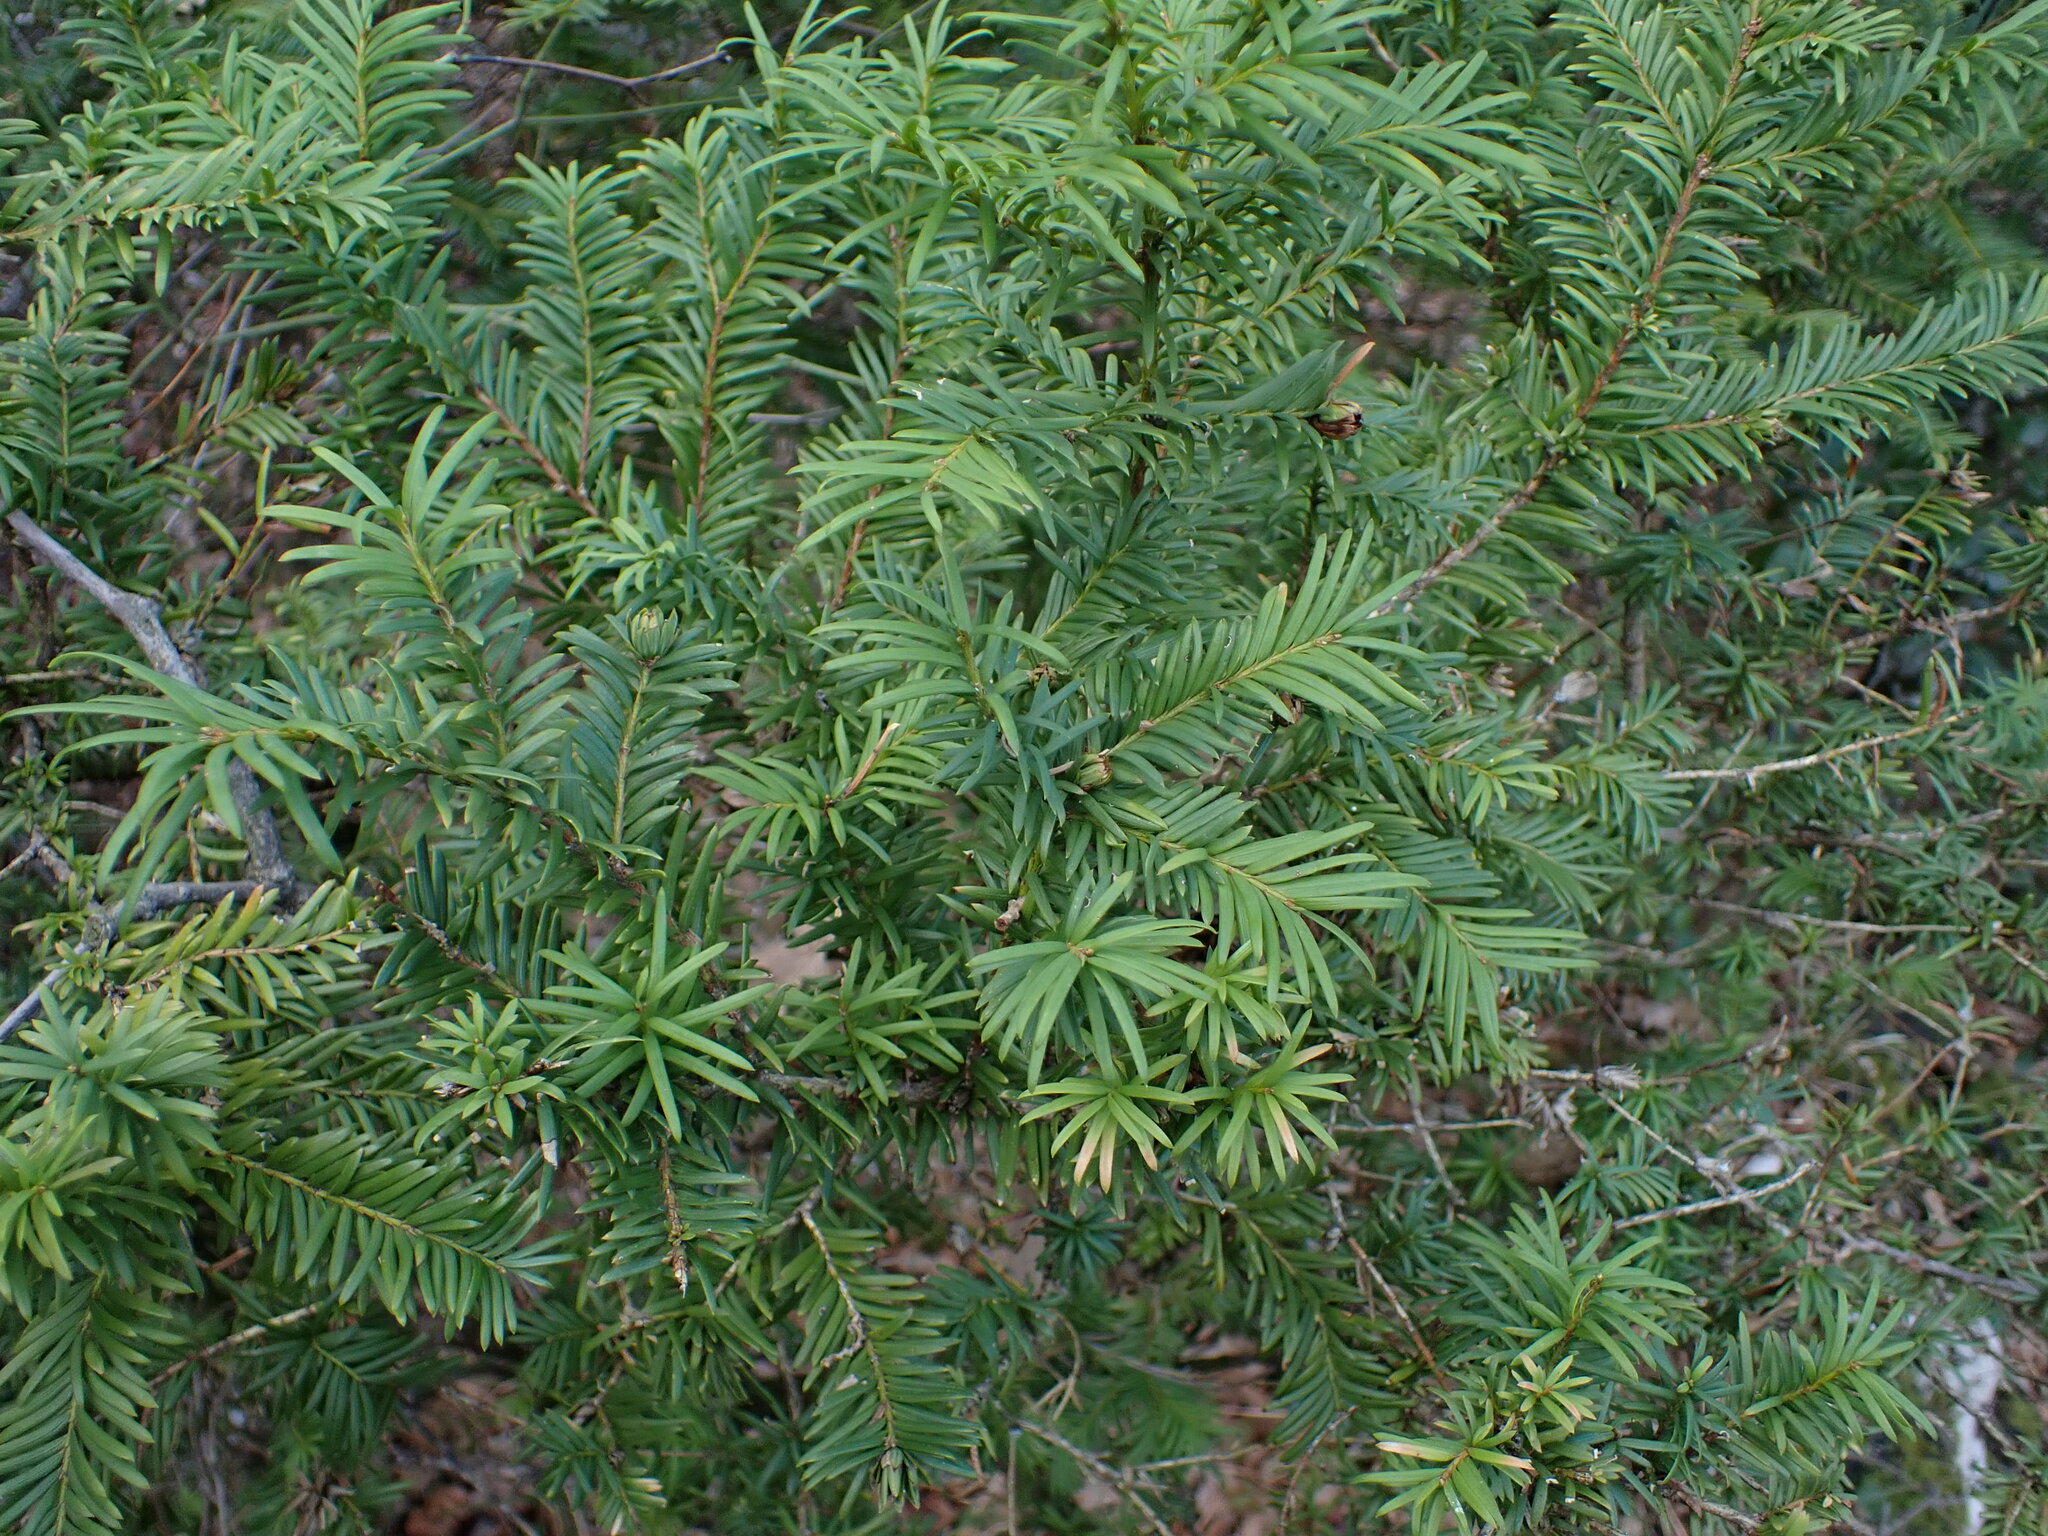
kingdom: Plantae
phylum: Tracheophyta
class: Pinopsida
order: Pinales
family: Taxaceae
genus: Taxus
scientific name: Taxus baccata
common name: Yew
